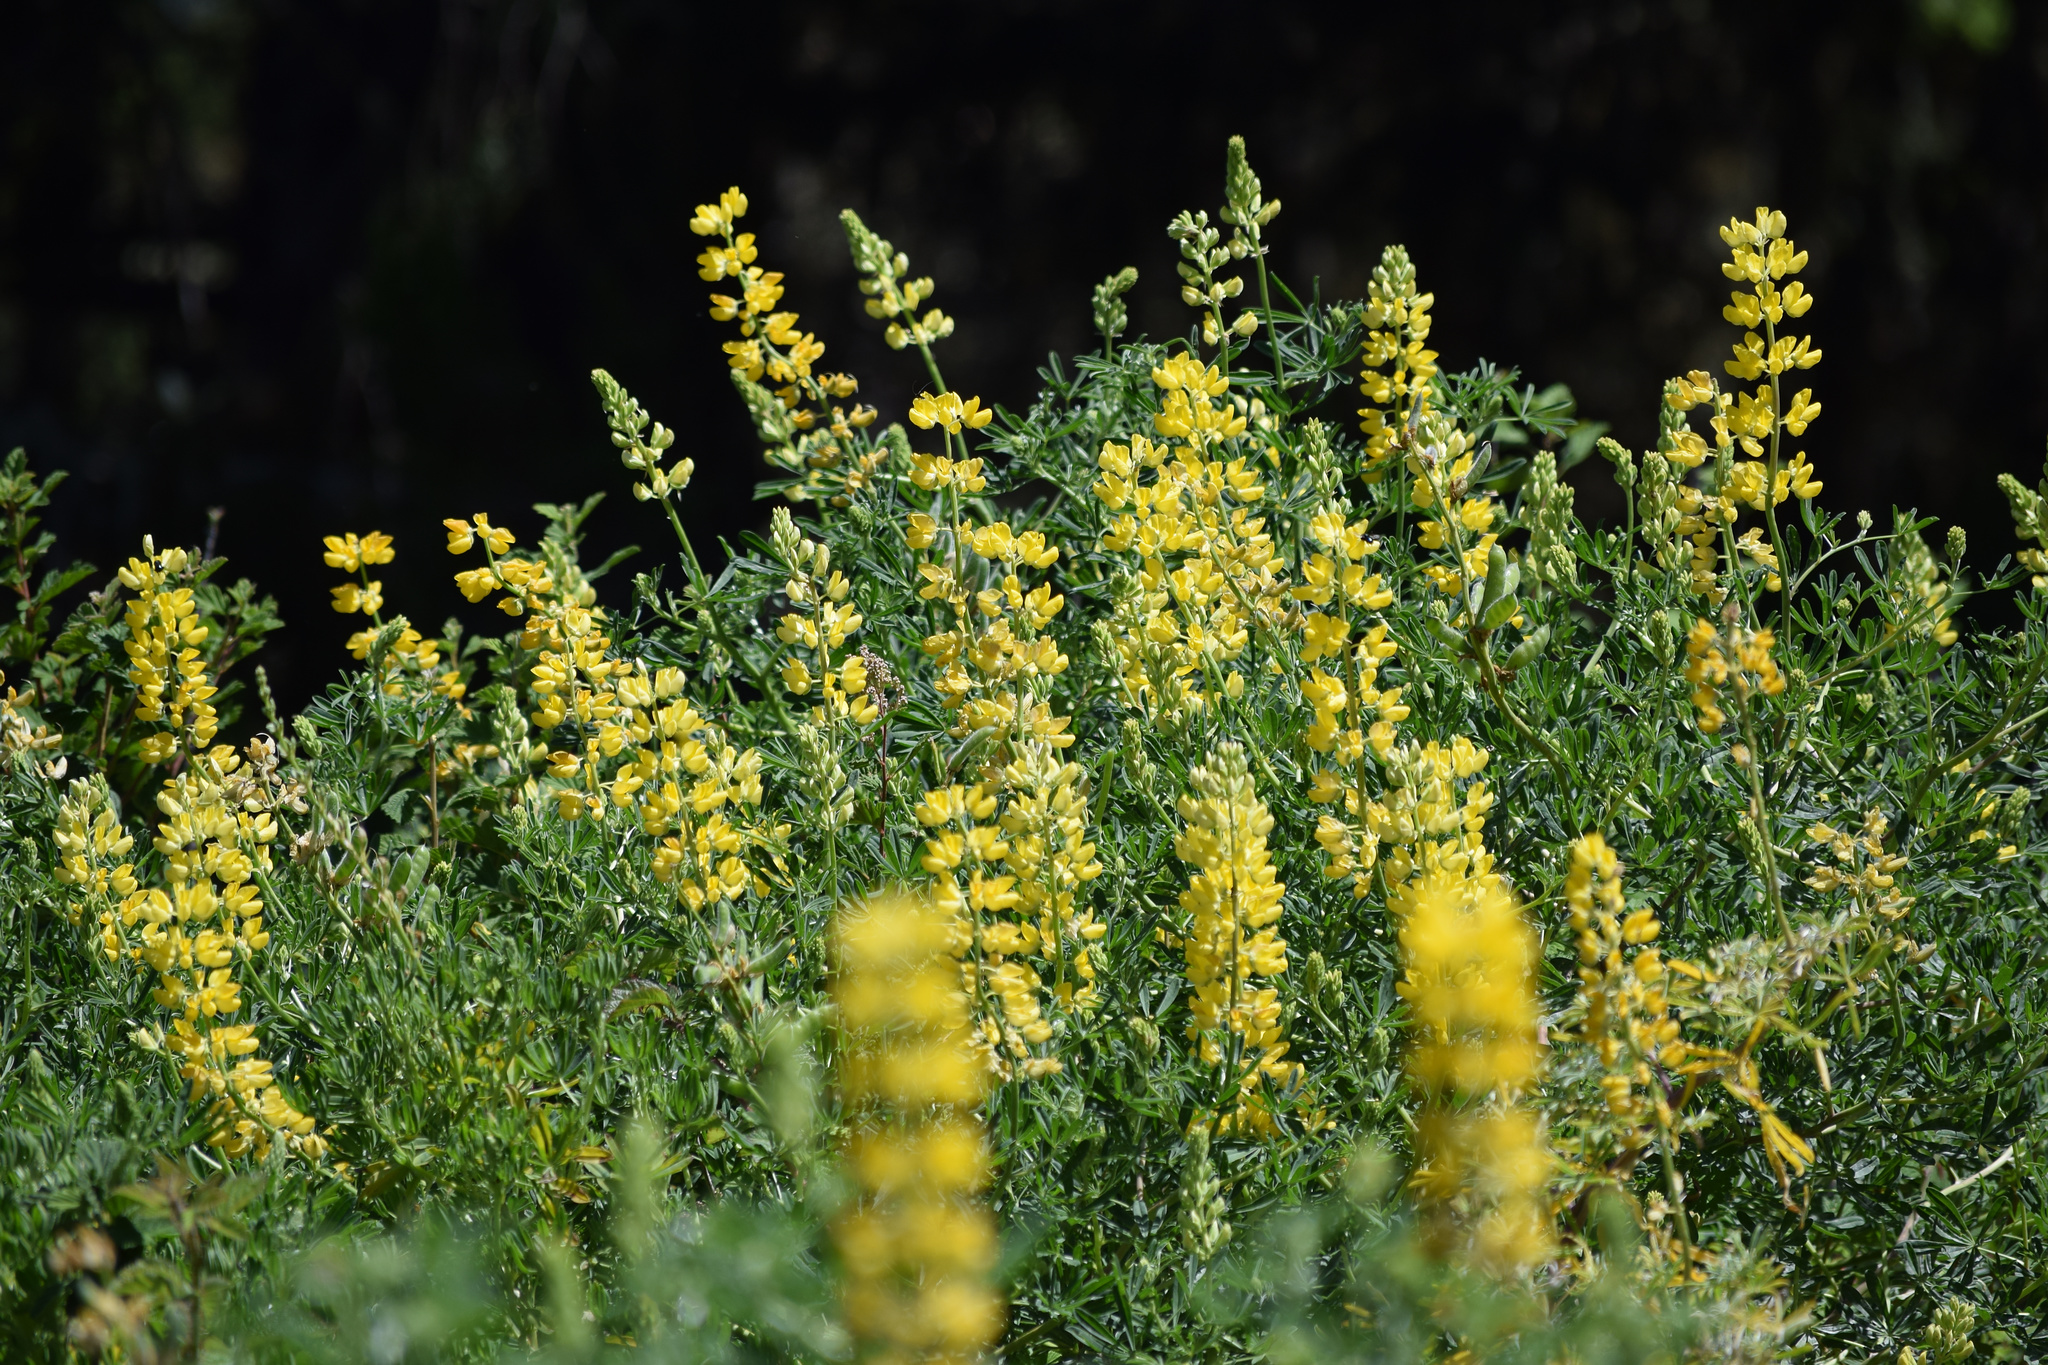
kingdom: Plantae
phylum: Tracheophyta
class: Magnoliopsida
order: Fabales
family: Fabaceae
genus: Lupinus
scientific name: Lupinus arboreus
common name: Yellow bush lupine
